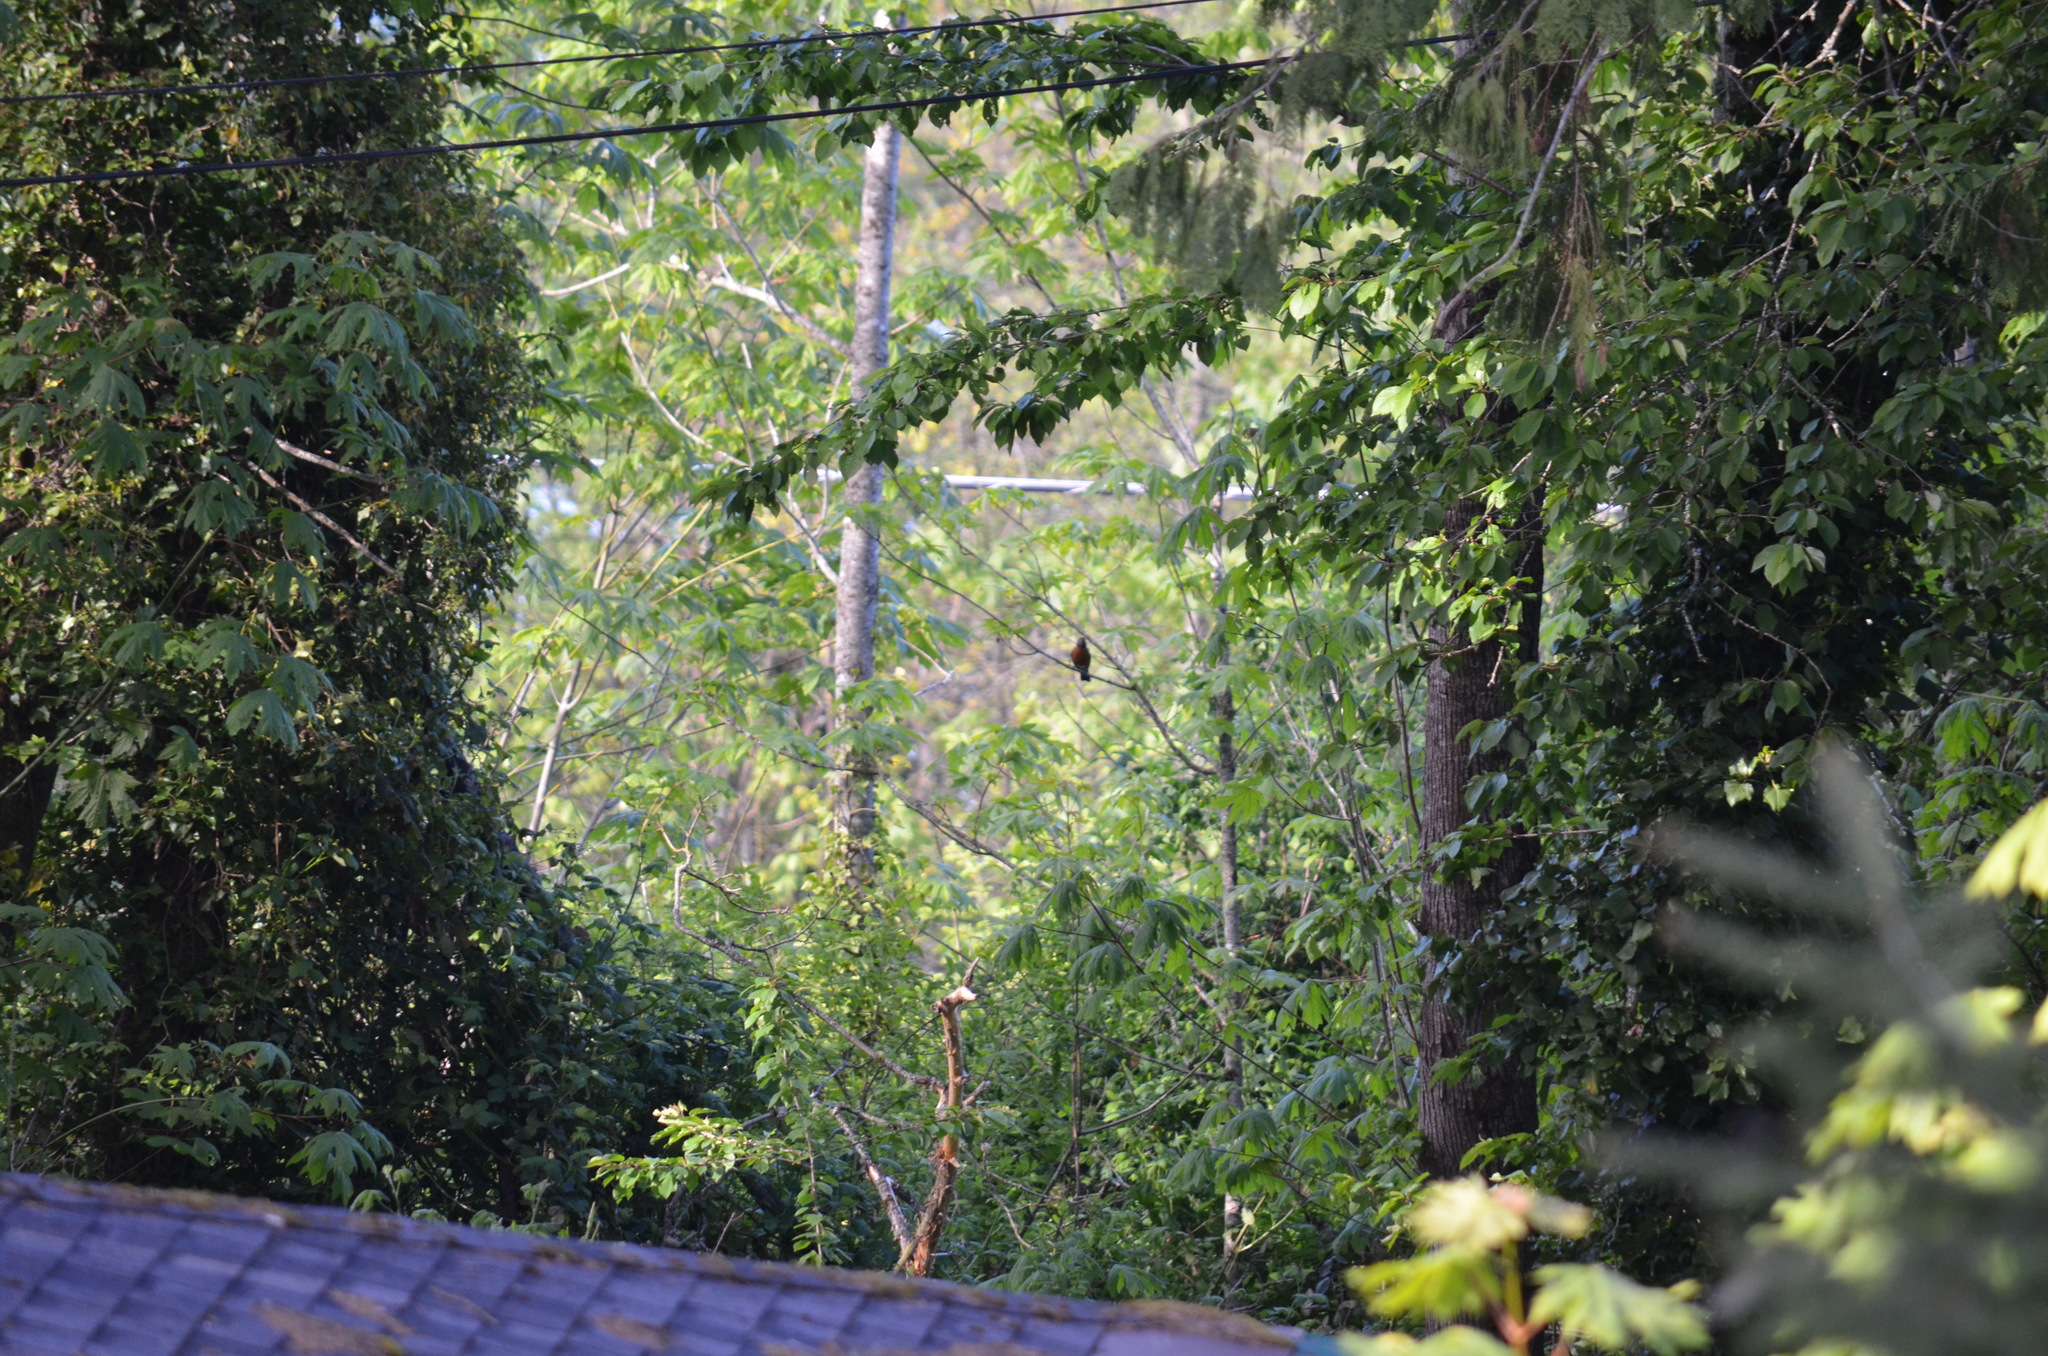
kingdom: Animalia
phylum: Chordata
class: Aves
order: Passeriformes
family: Turdidae
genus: Turdus
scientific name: Turdus migratorius
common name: American robin
